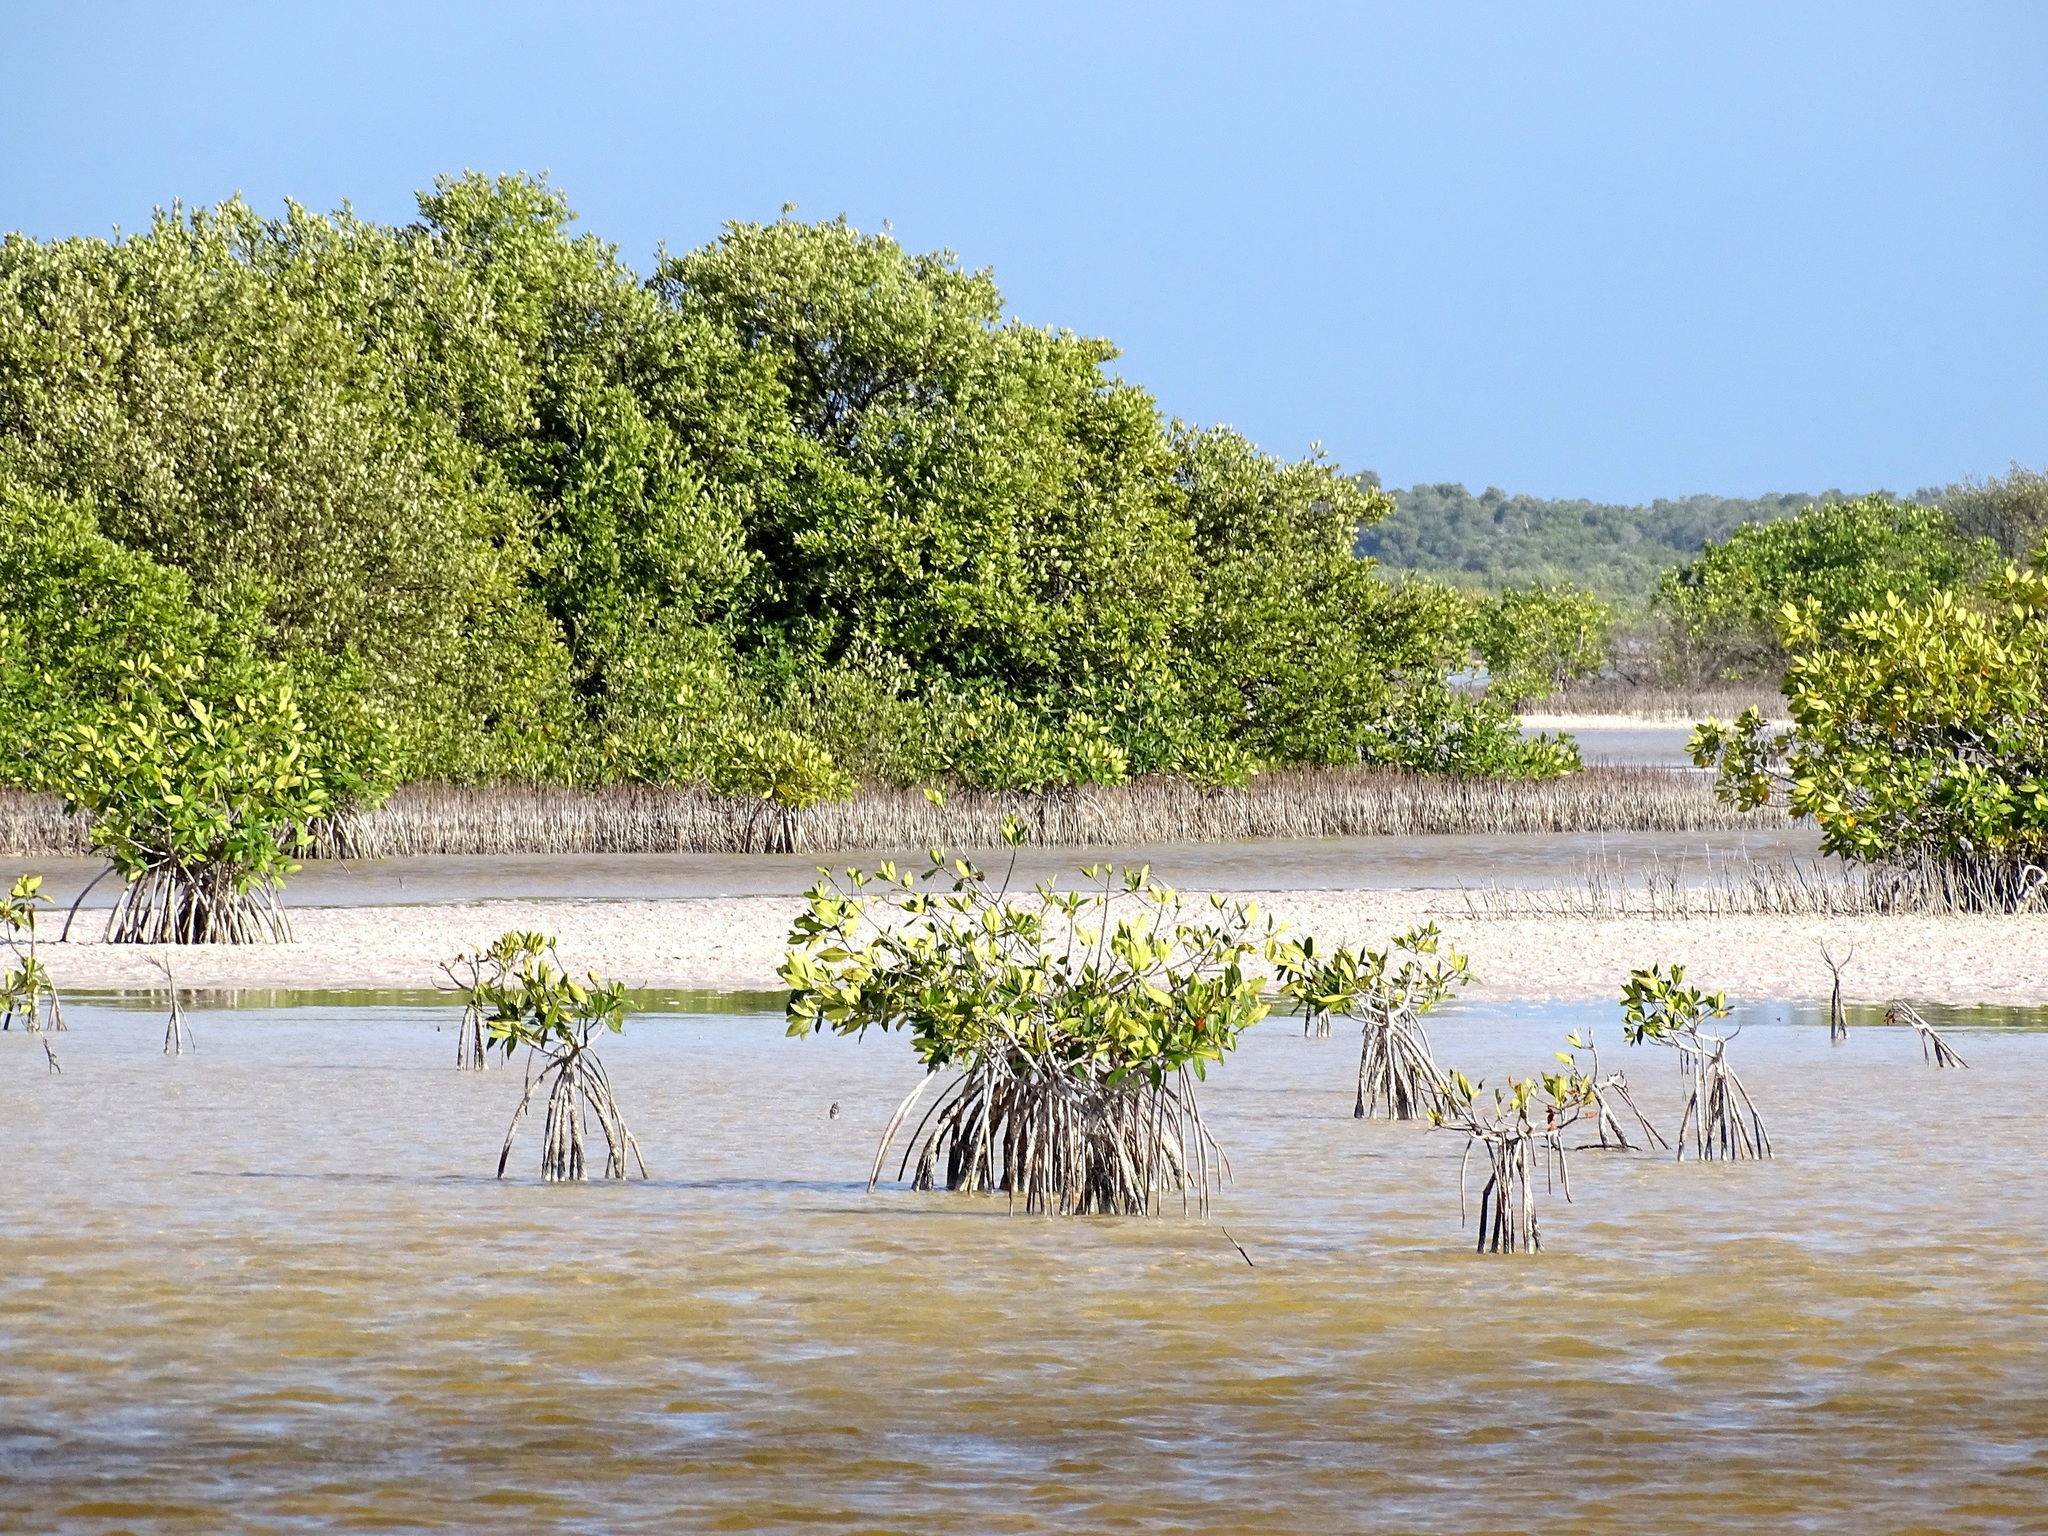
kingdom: Plantae
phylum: Tracheophyta
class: Magnoliopsida
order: Lamiales
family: Acanthaceae
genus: Avicennia
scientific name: Avicennia germinans
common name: Black mangrove
